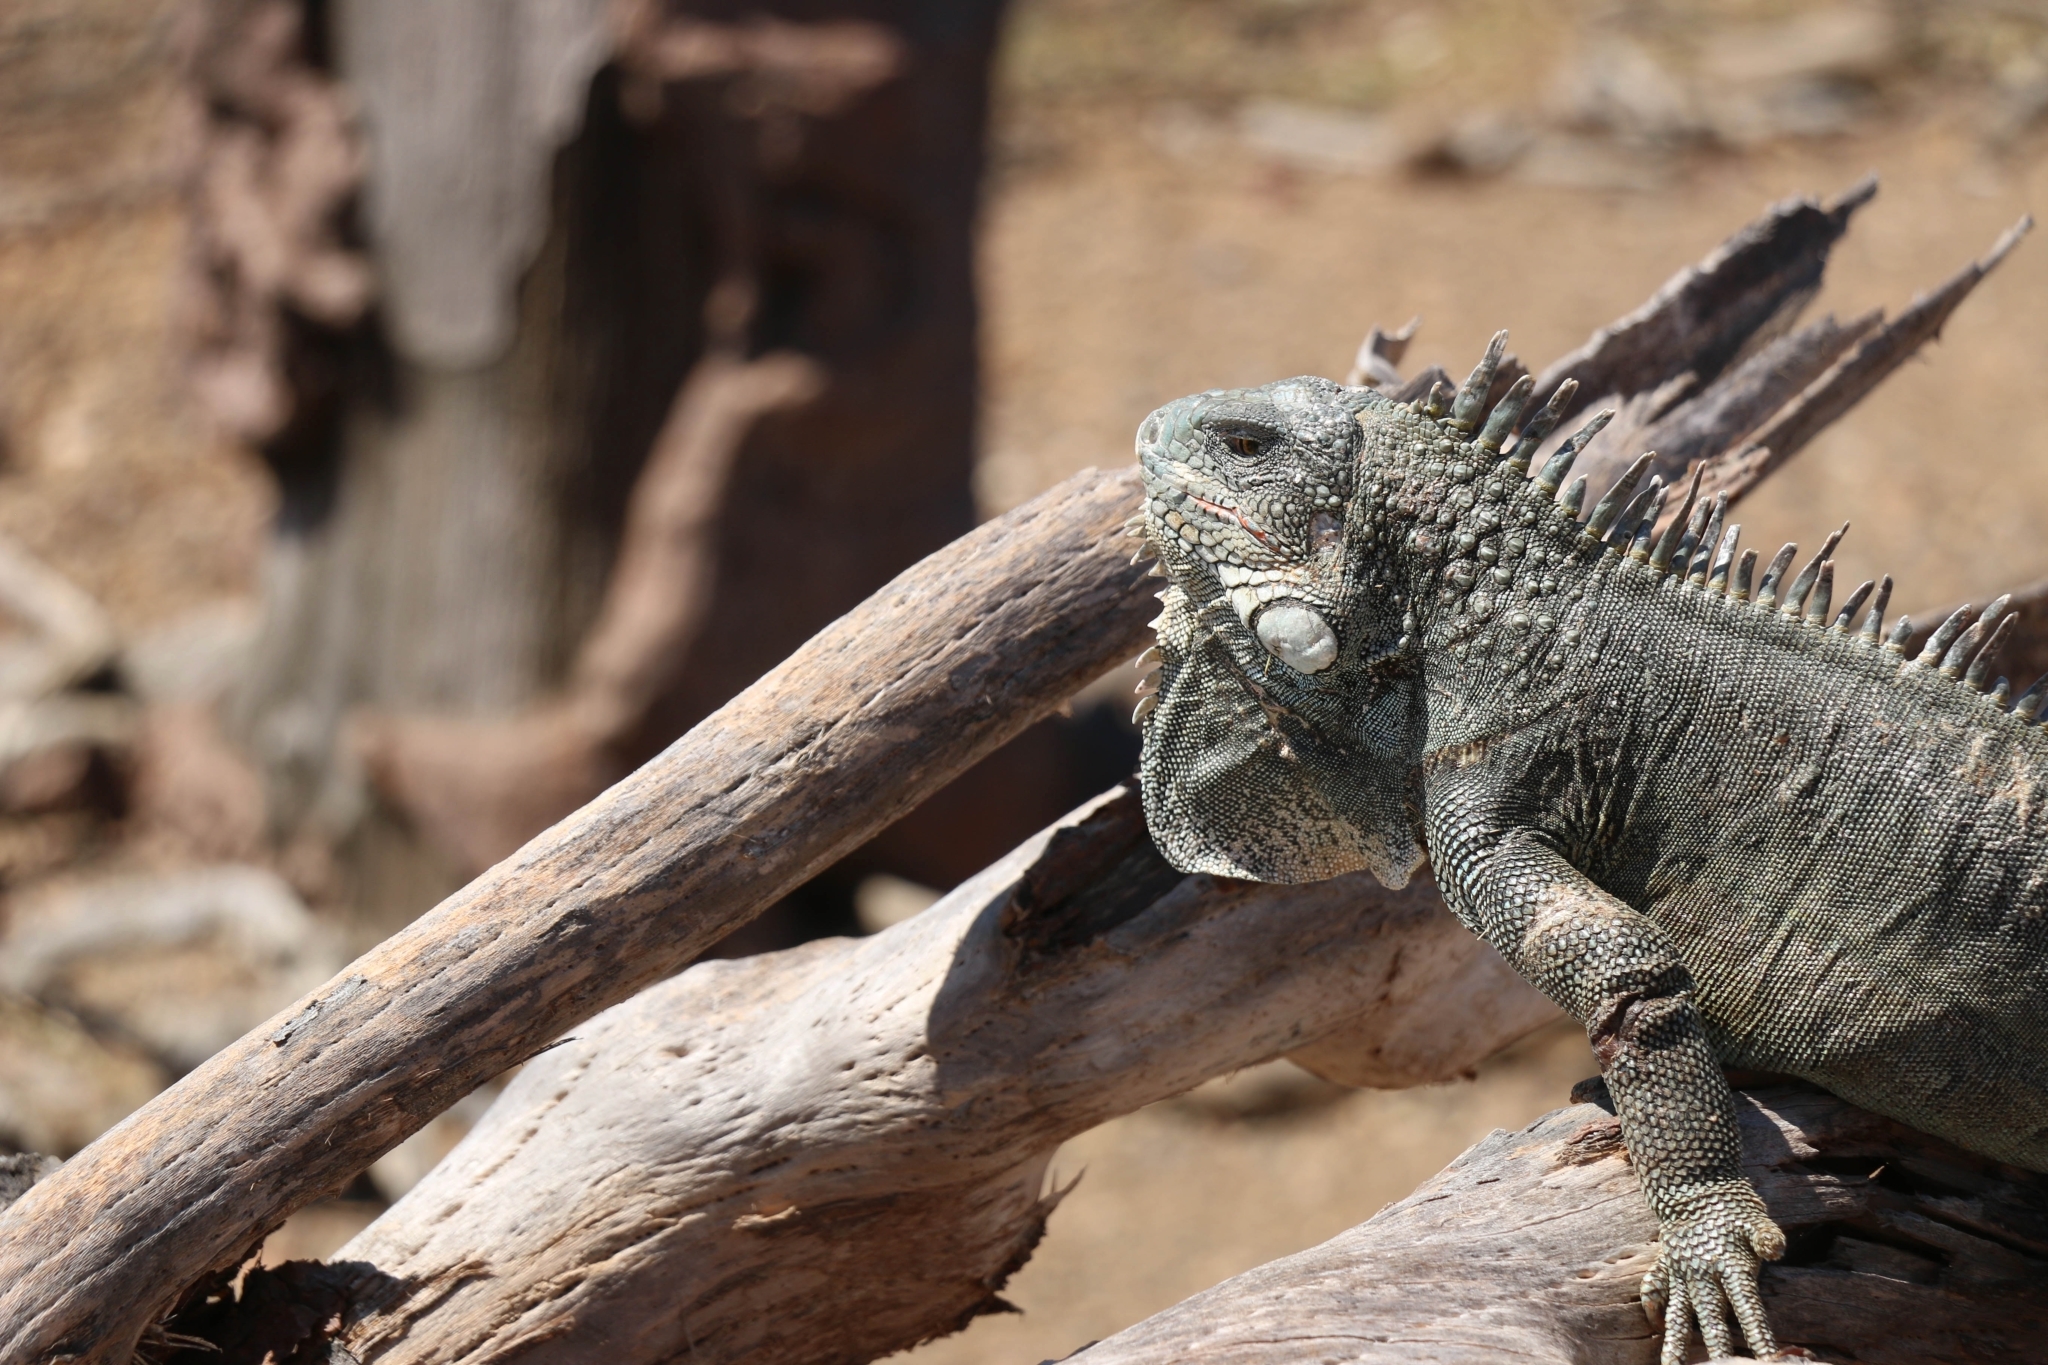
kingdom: Animalia
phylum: Chordata
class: Squamata
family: Iguanidae
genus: Iguana
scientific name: Iguana iguana
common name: Green iguana
